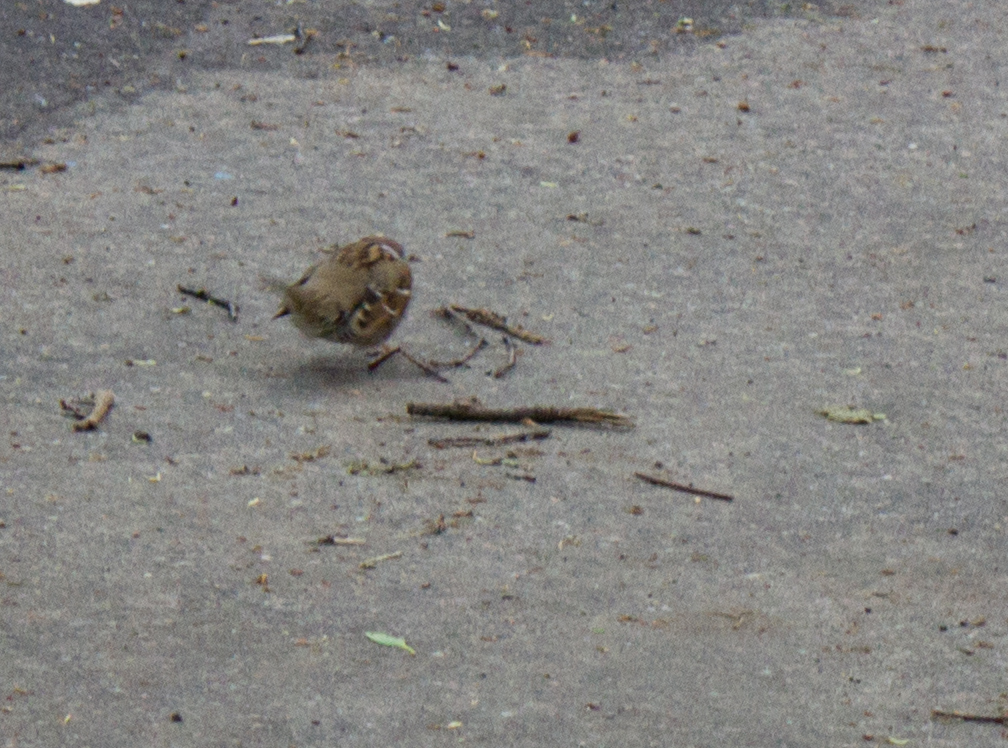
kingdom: Animalia
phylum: Chordata
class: Aves
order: Passeriformes
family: Passeridae
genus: Passer
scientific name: Passer montanus
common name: Eurasian tree sparrow
